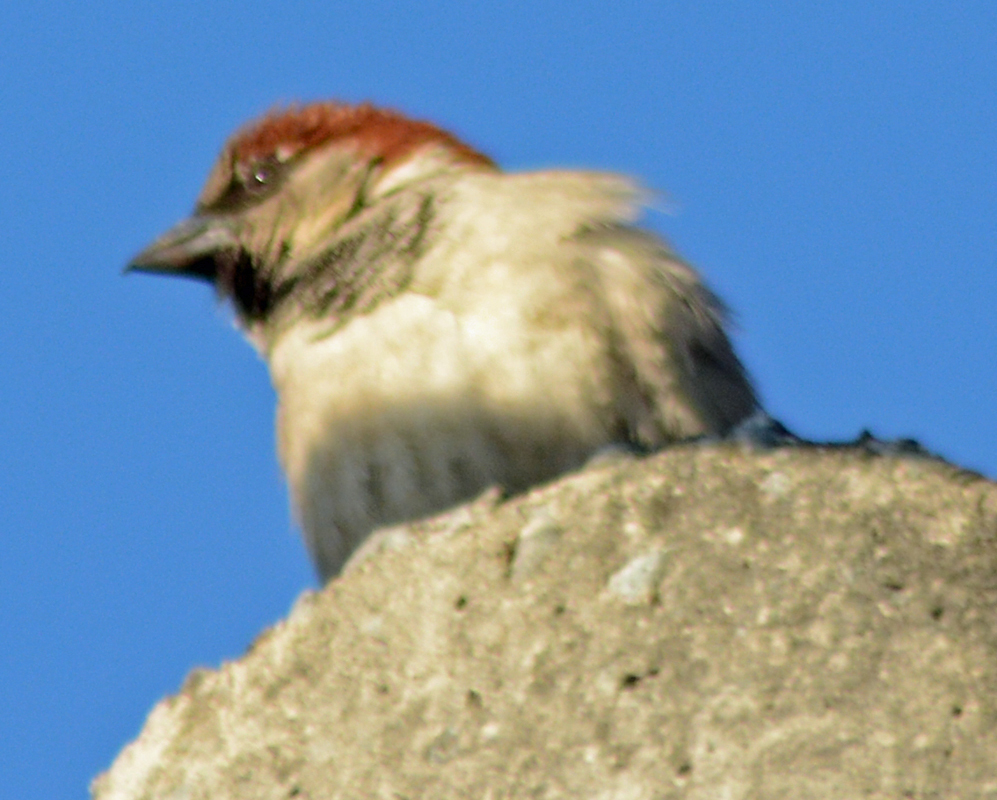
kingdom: Animalia
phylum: Chordata
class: Aves
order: Passeriformes
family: Passeridae
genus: Passer
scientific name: Passer domesticus
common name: House sparrow
